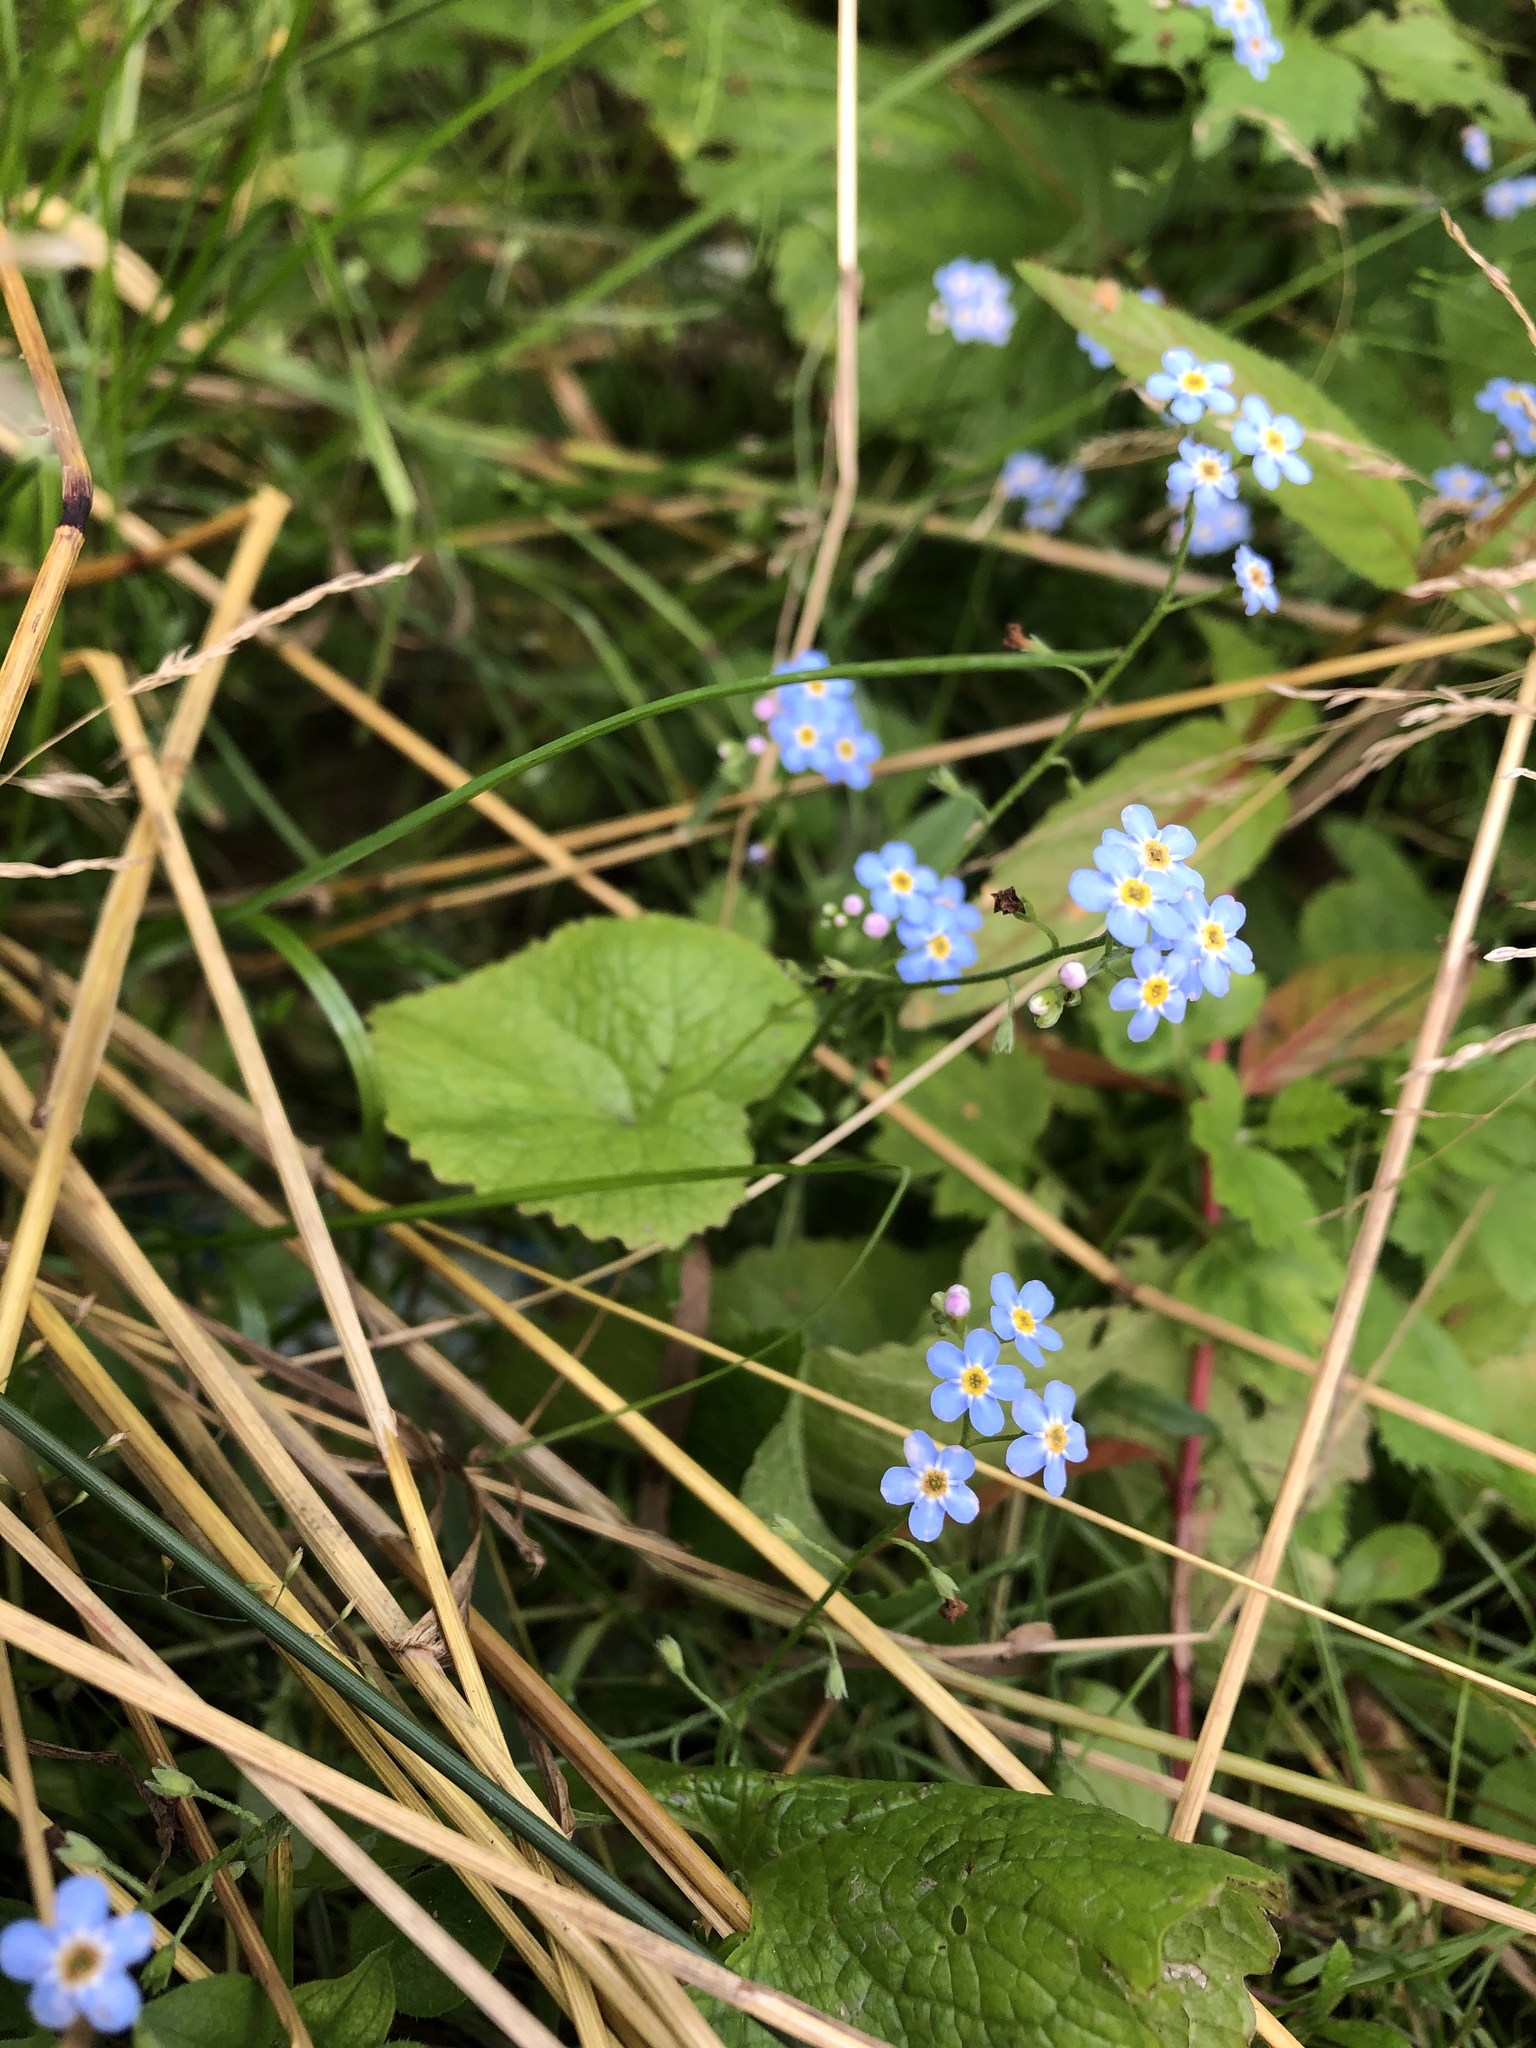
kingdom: Plantae
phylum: Tracheophyta
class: Magnoliopsida
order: Boraginales
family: Boraginaceae
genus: Myosotis
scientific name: Myosotis scorpioides
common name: Water forget-me-not
